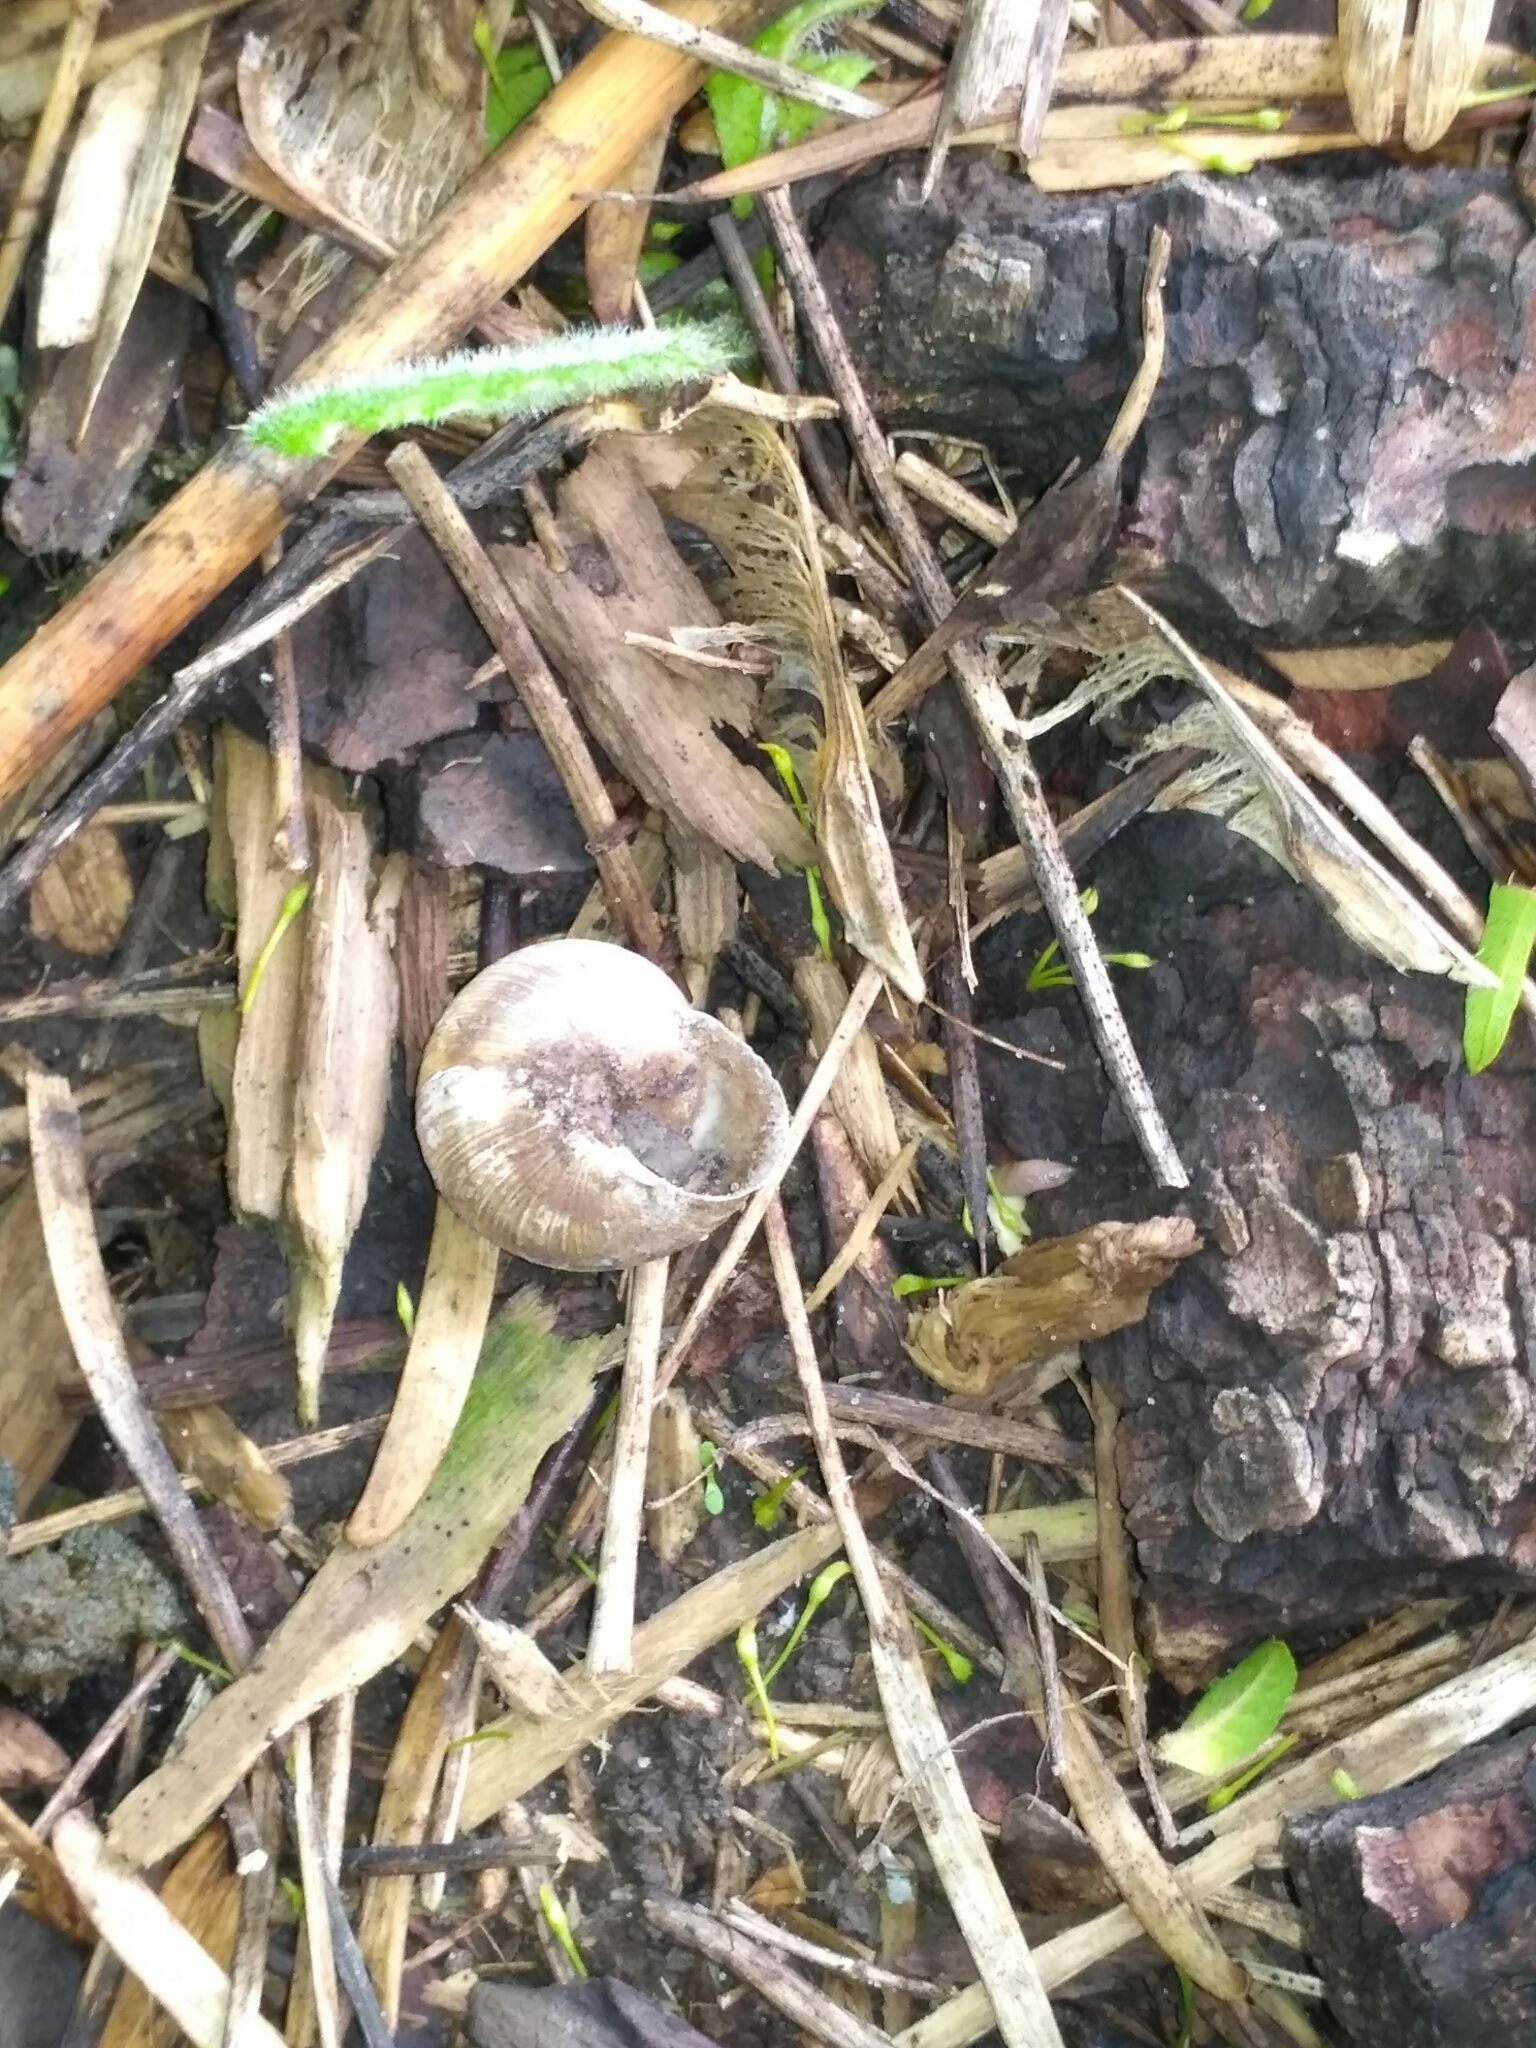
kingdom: Animalia
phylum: Mollusca
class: Gastropoda
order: Stylommatophora
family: Helicidae
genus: Caucasotachea
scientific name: Caucasotachea vindobonensis
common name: European helicid land snail
